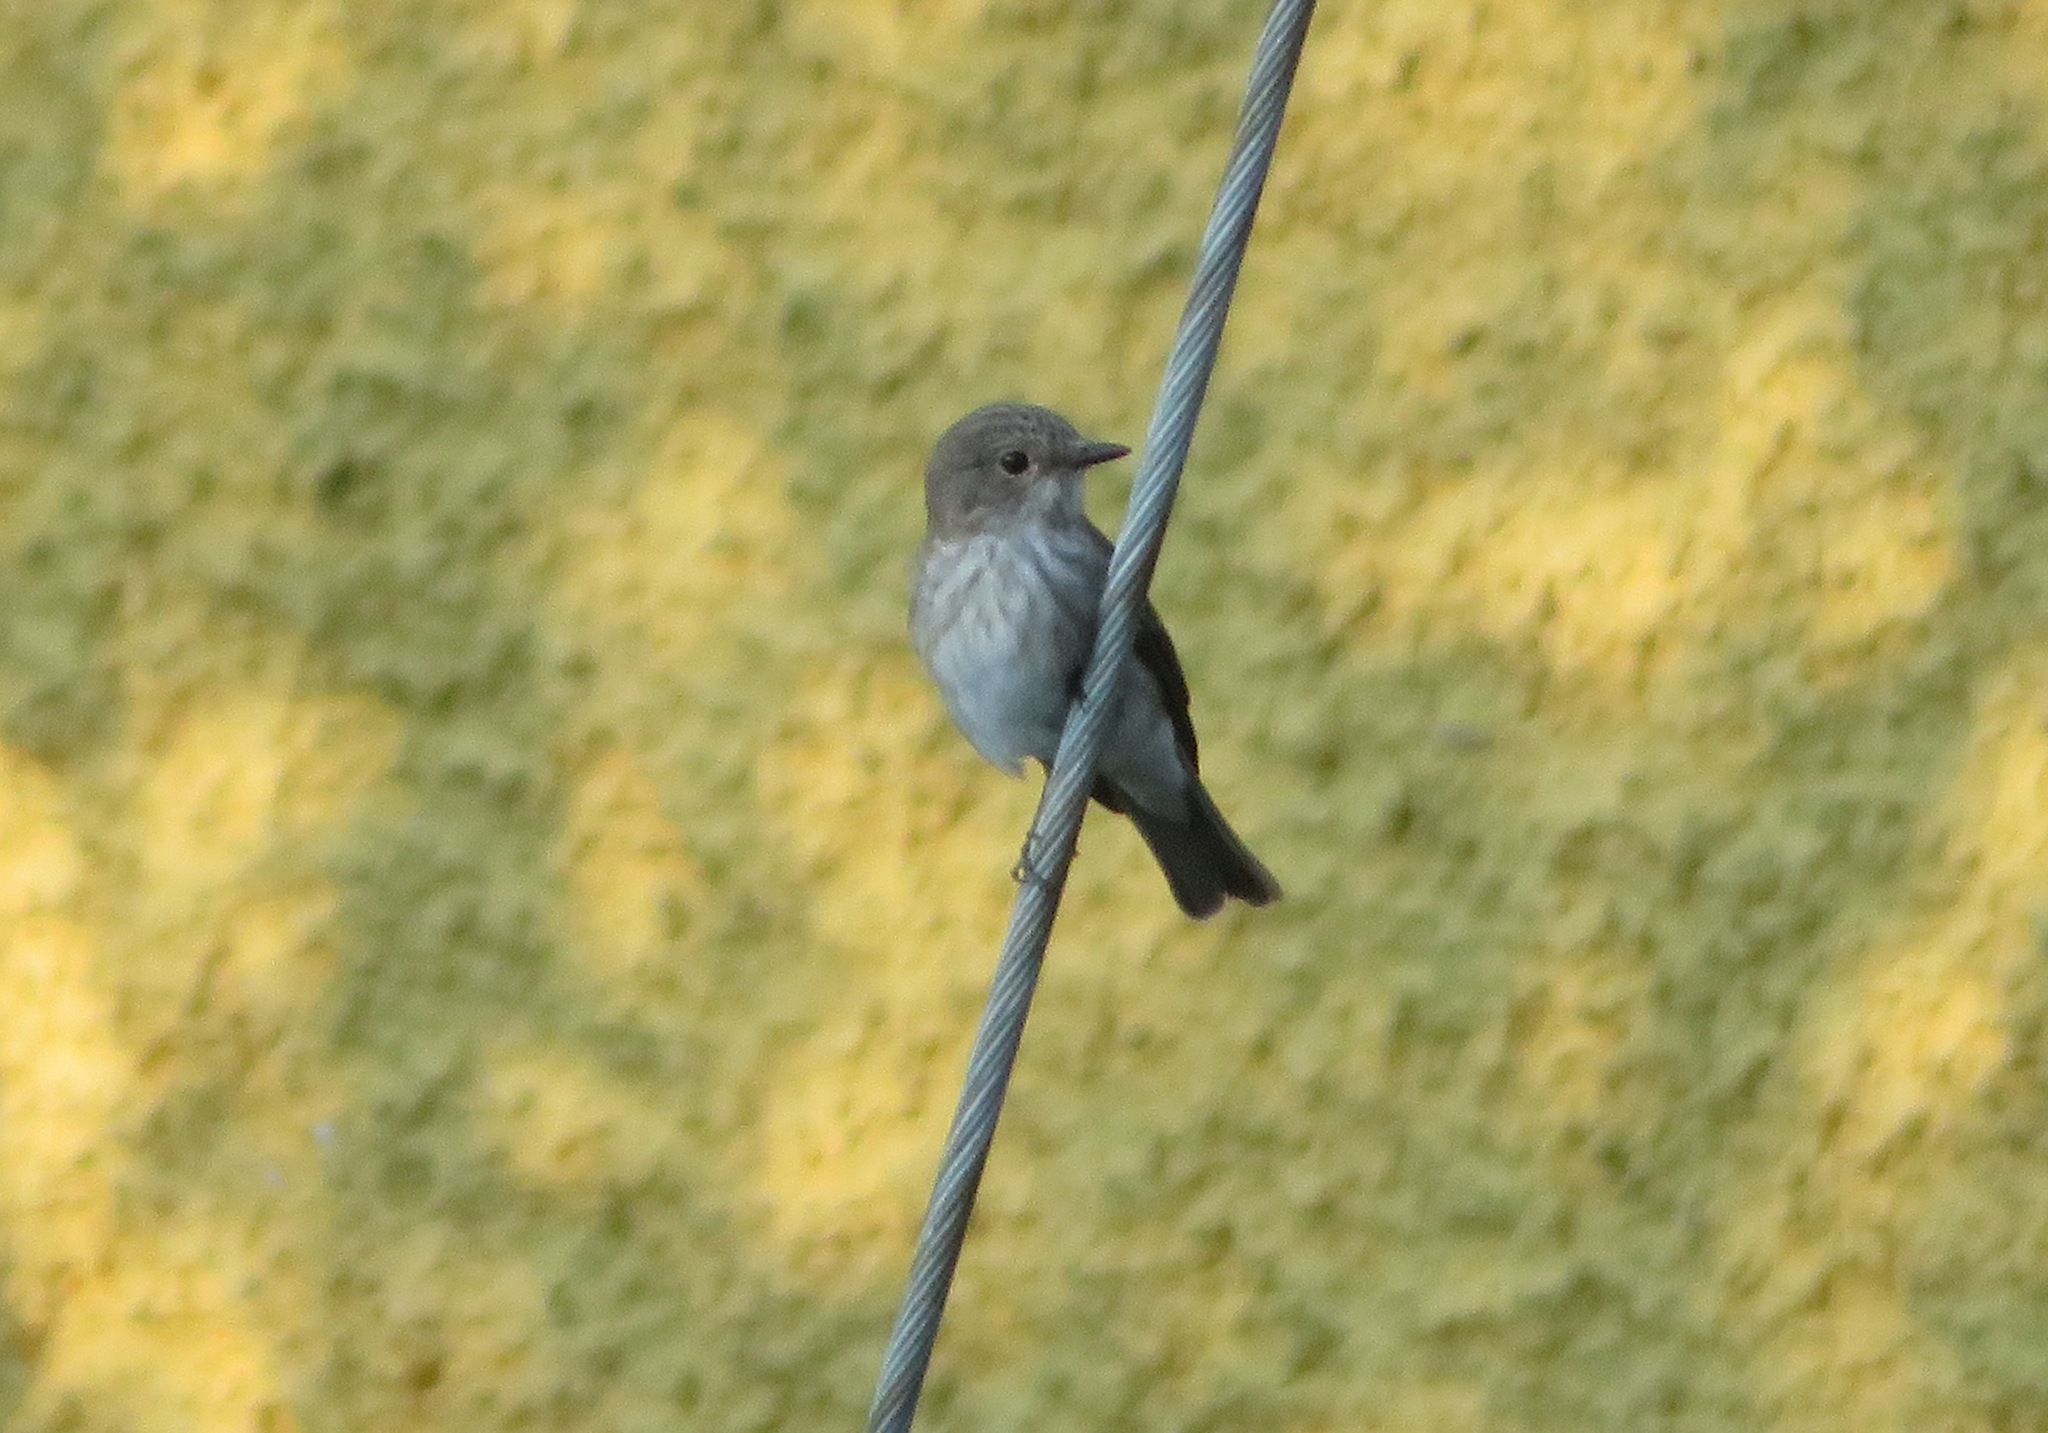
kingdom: Animalia
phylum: Chordata
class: Aves
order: Passeriformes
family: Muscicapidae
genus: Muscicapa
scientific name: Muscicapa striata
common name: Spotted flycatcher
